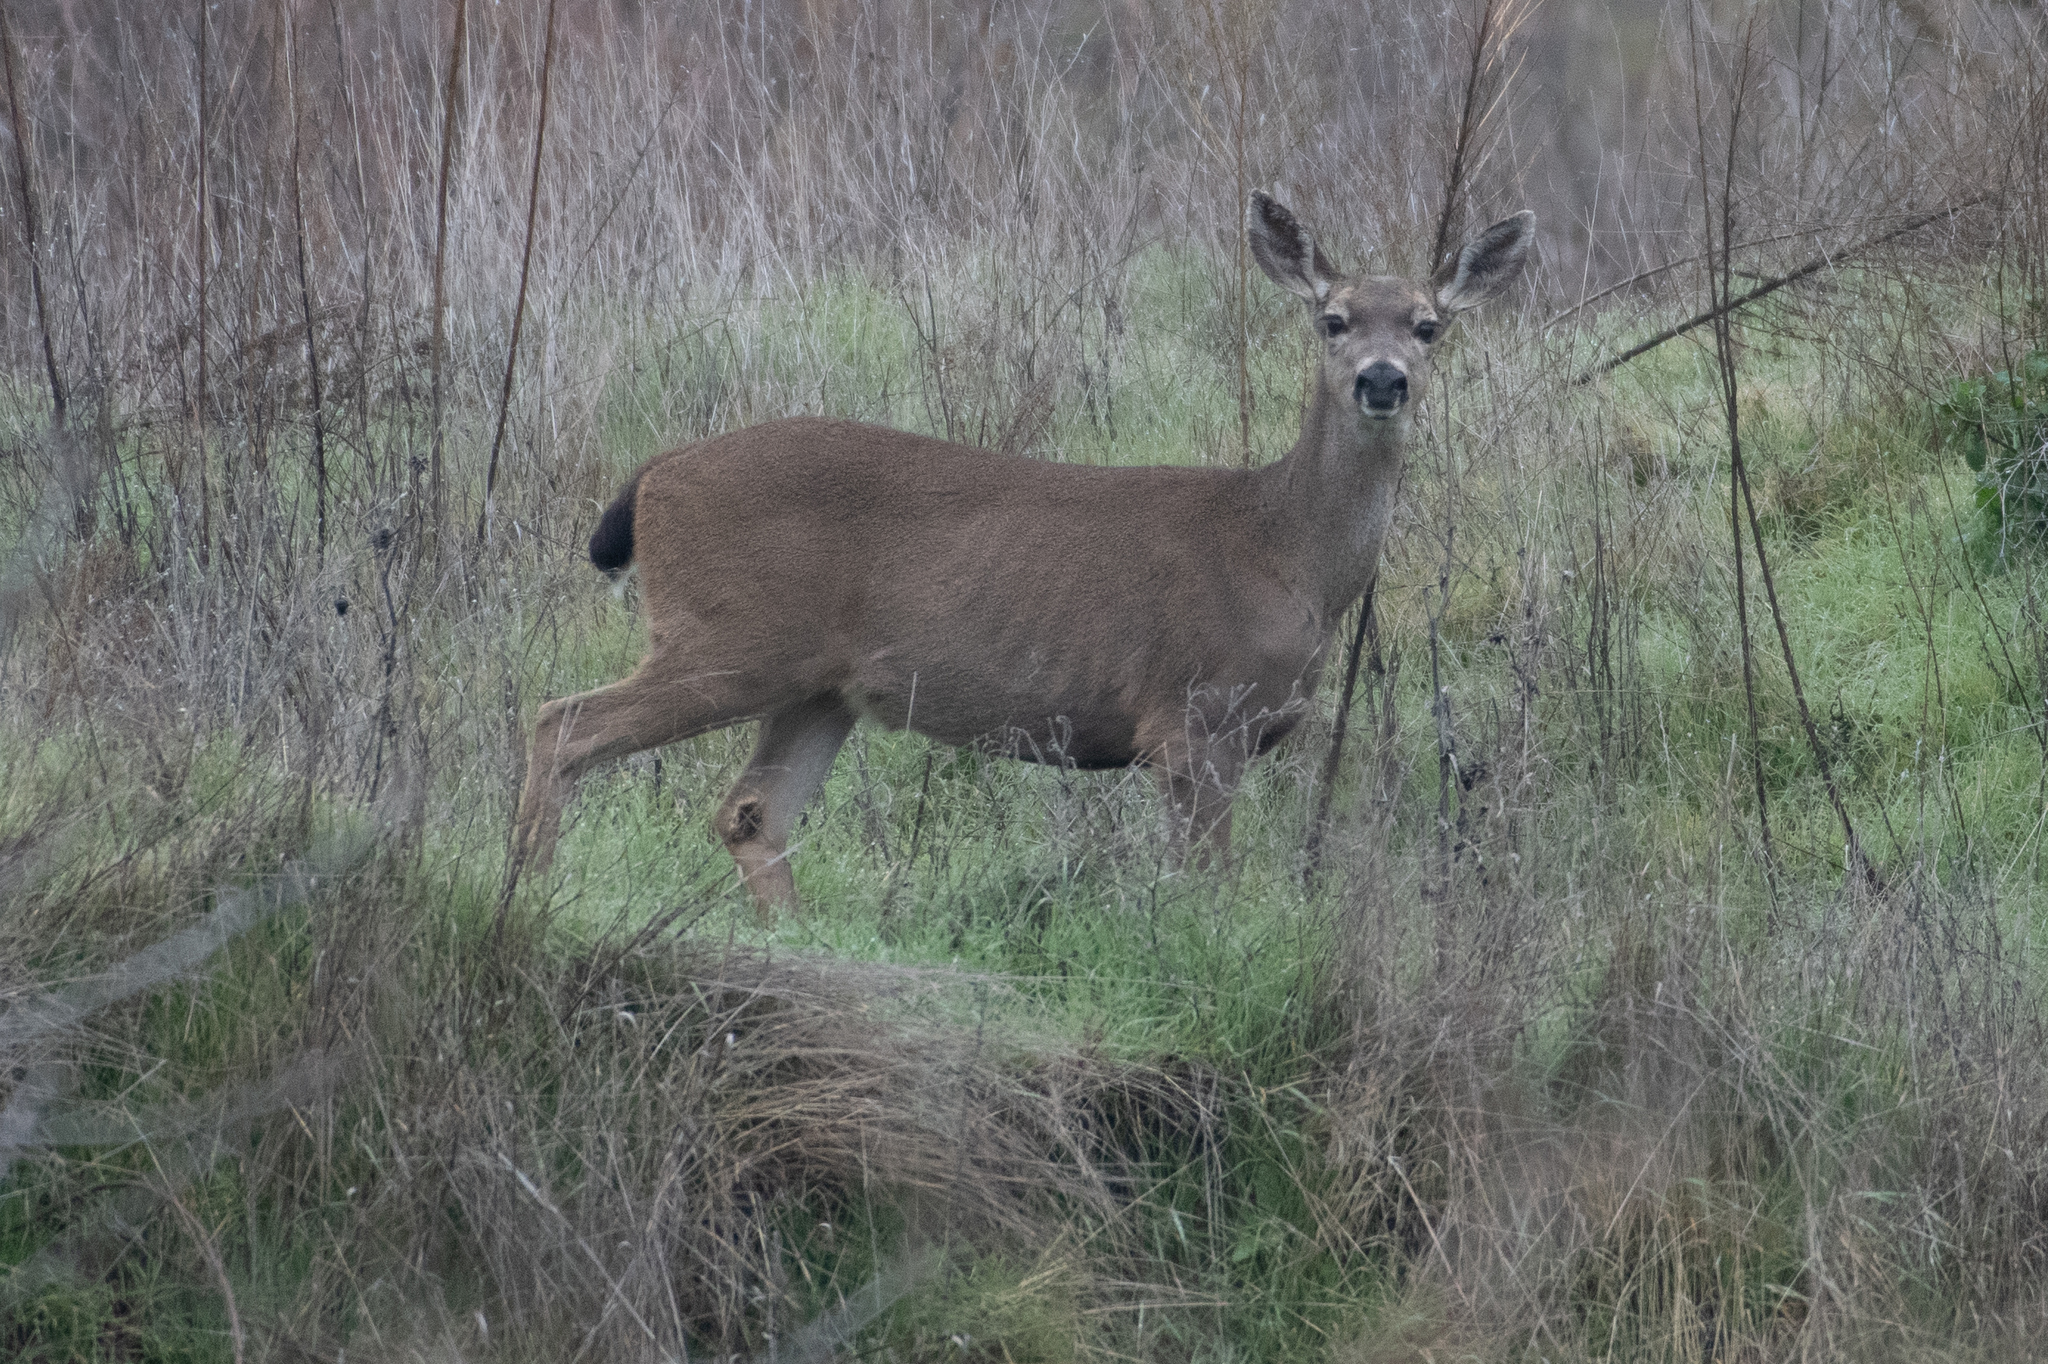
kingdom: Animalia
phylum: Chordata
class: Mammalia
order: Artiodactyla
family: Cervidae
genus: Odocoileus
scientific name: Odocoileus hemionus
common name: Mule deer
